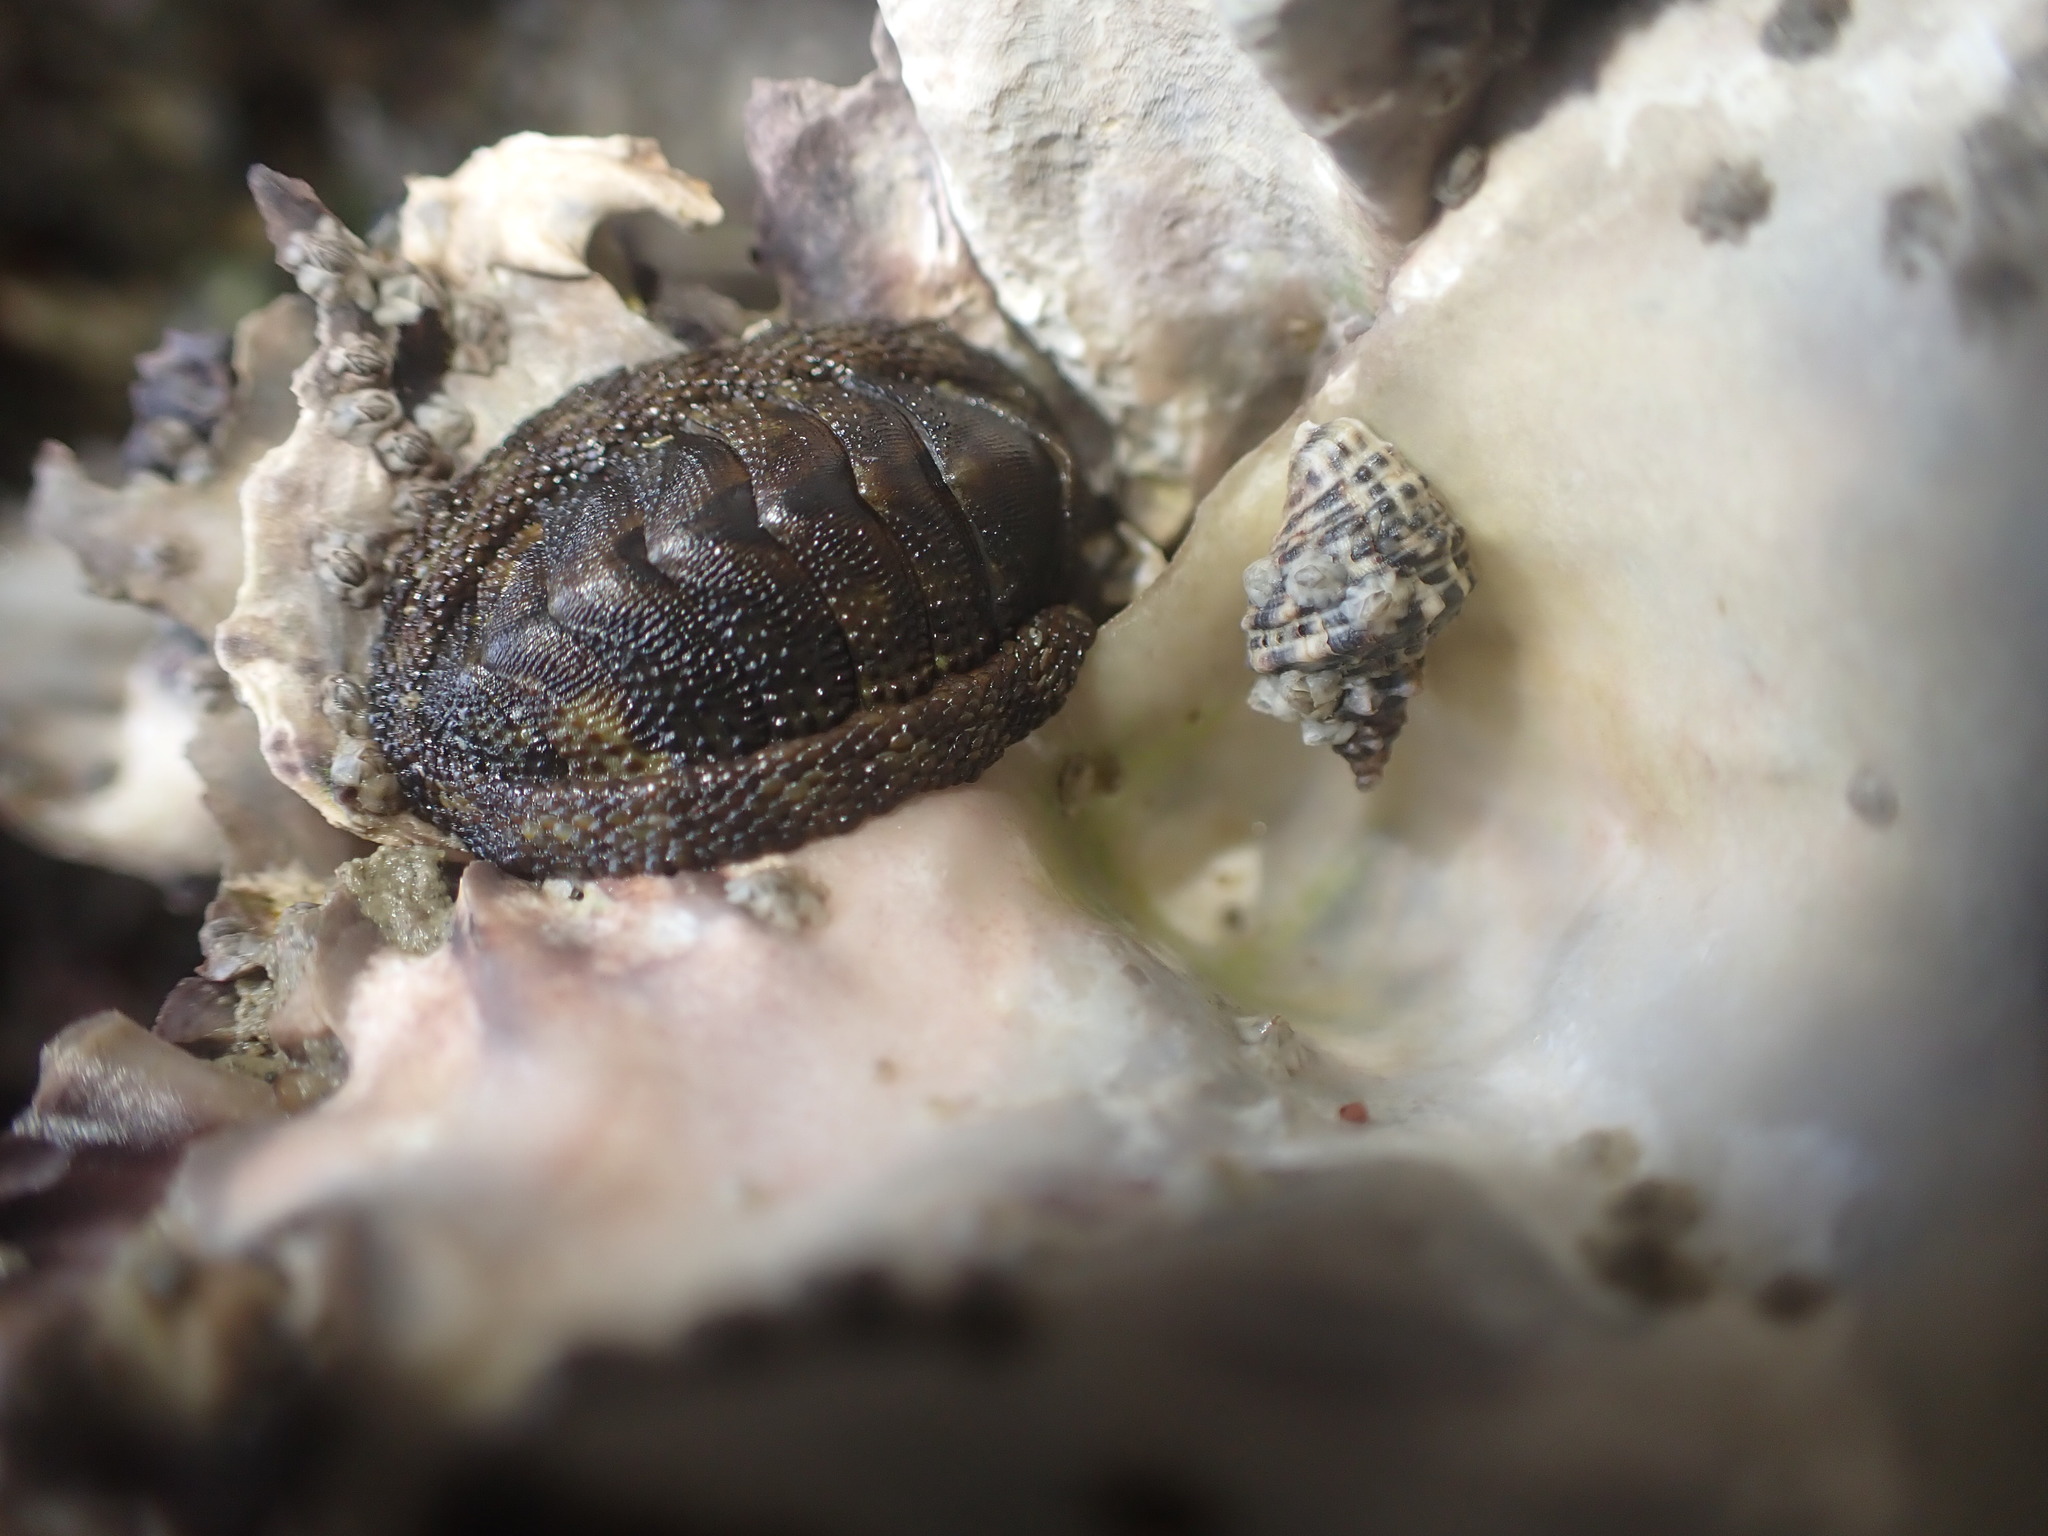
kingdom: Animalia
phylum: Mollusca
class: Polyplacophora
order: Chitonida
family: Chitonidae
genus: Sypharochiton
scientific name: Sypharochiton pelliserpentis
